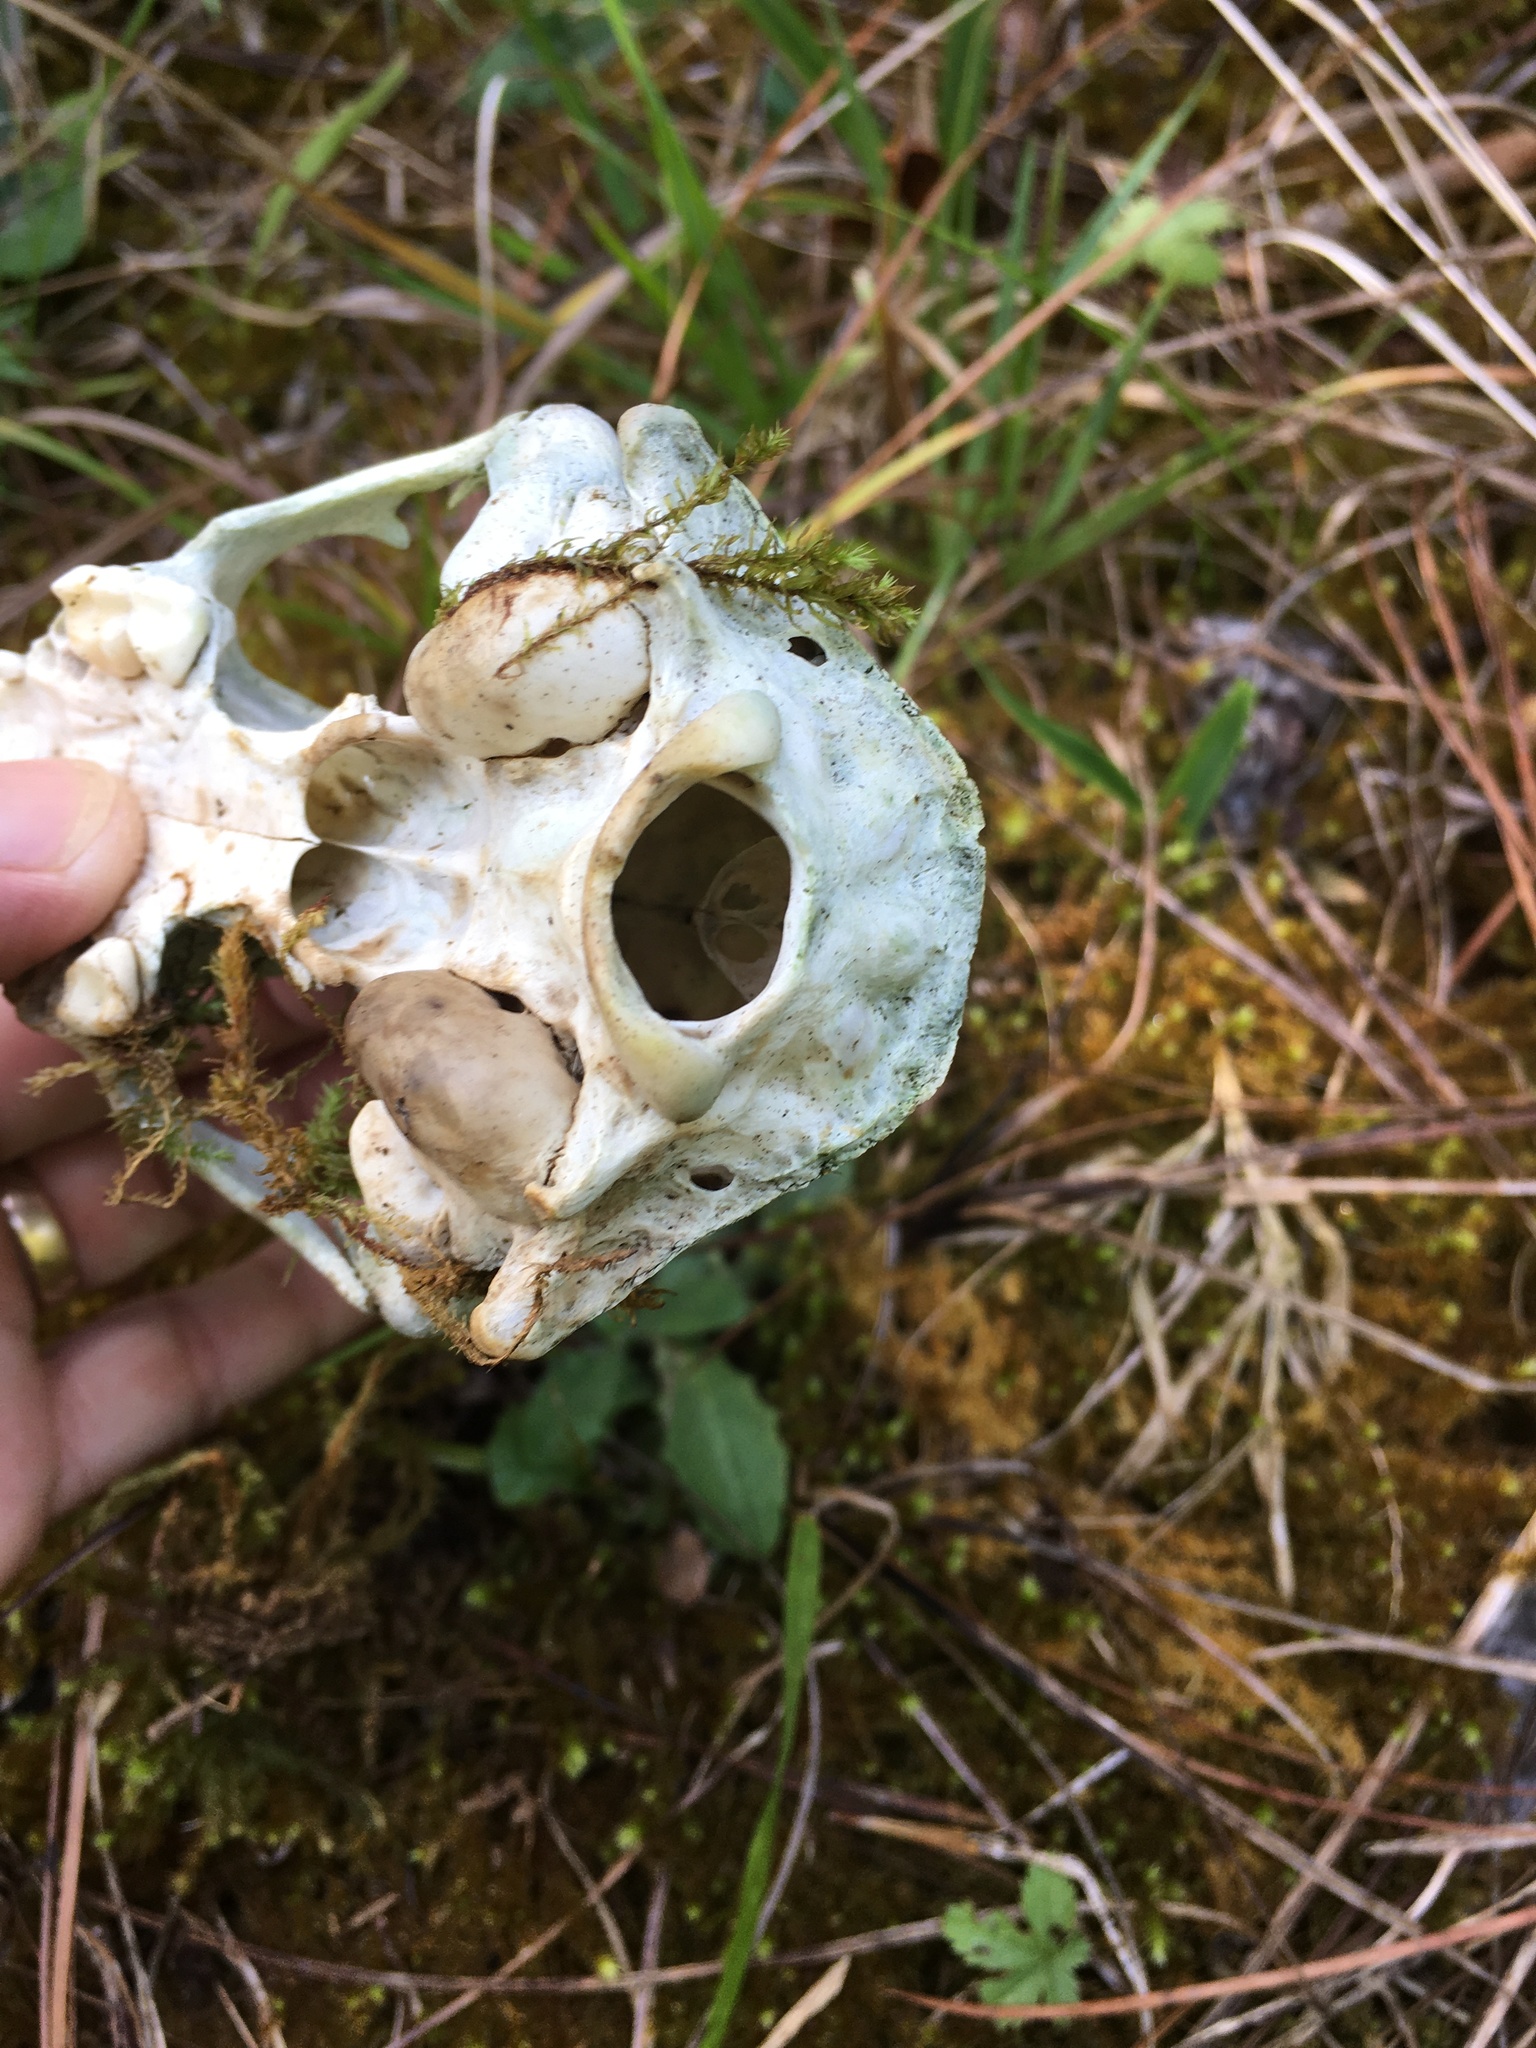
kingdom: Animalia
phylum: Chordata
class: Mammalia
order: Carnivora
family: Procyonidae
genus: Procyon
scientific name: Procyon lotor
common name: Raccoon
